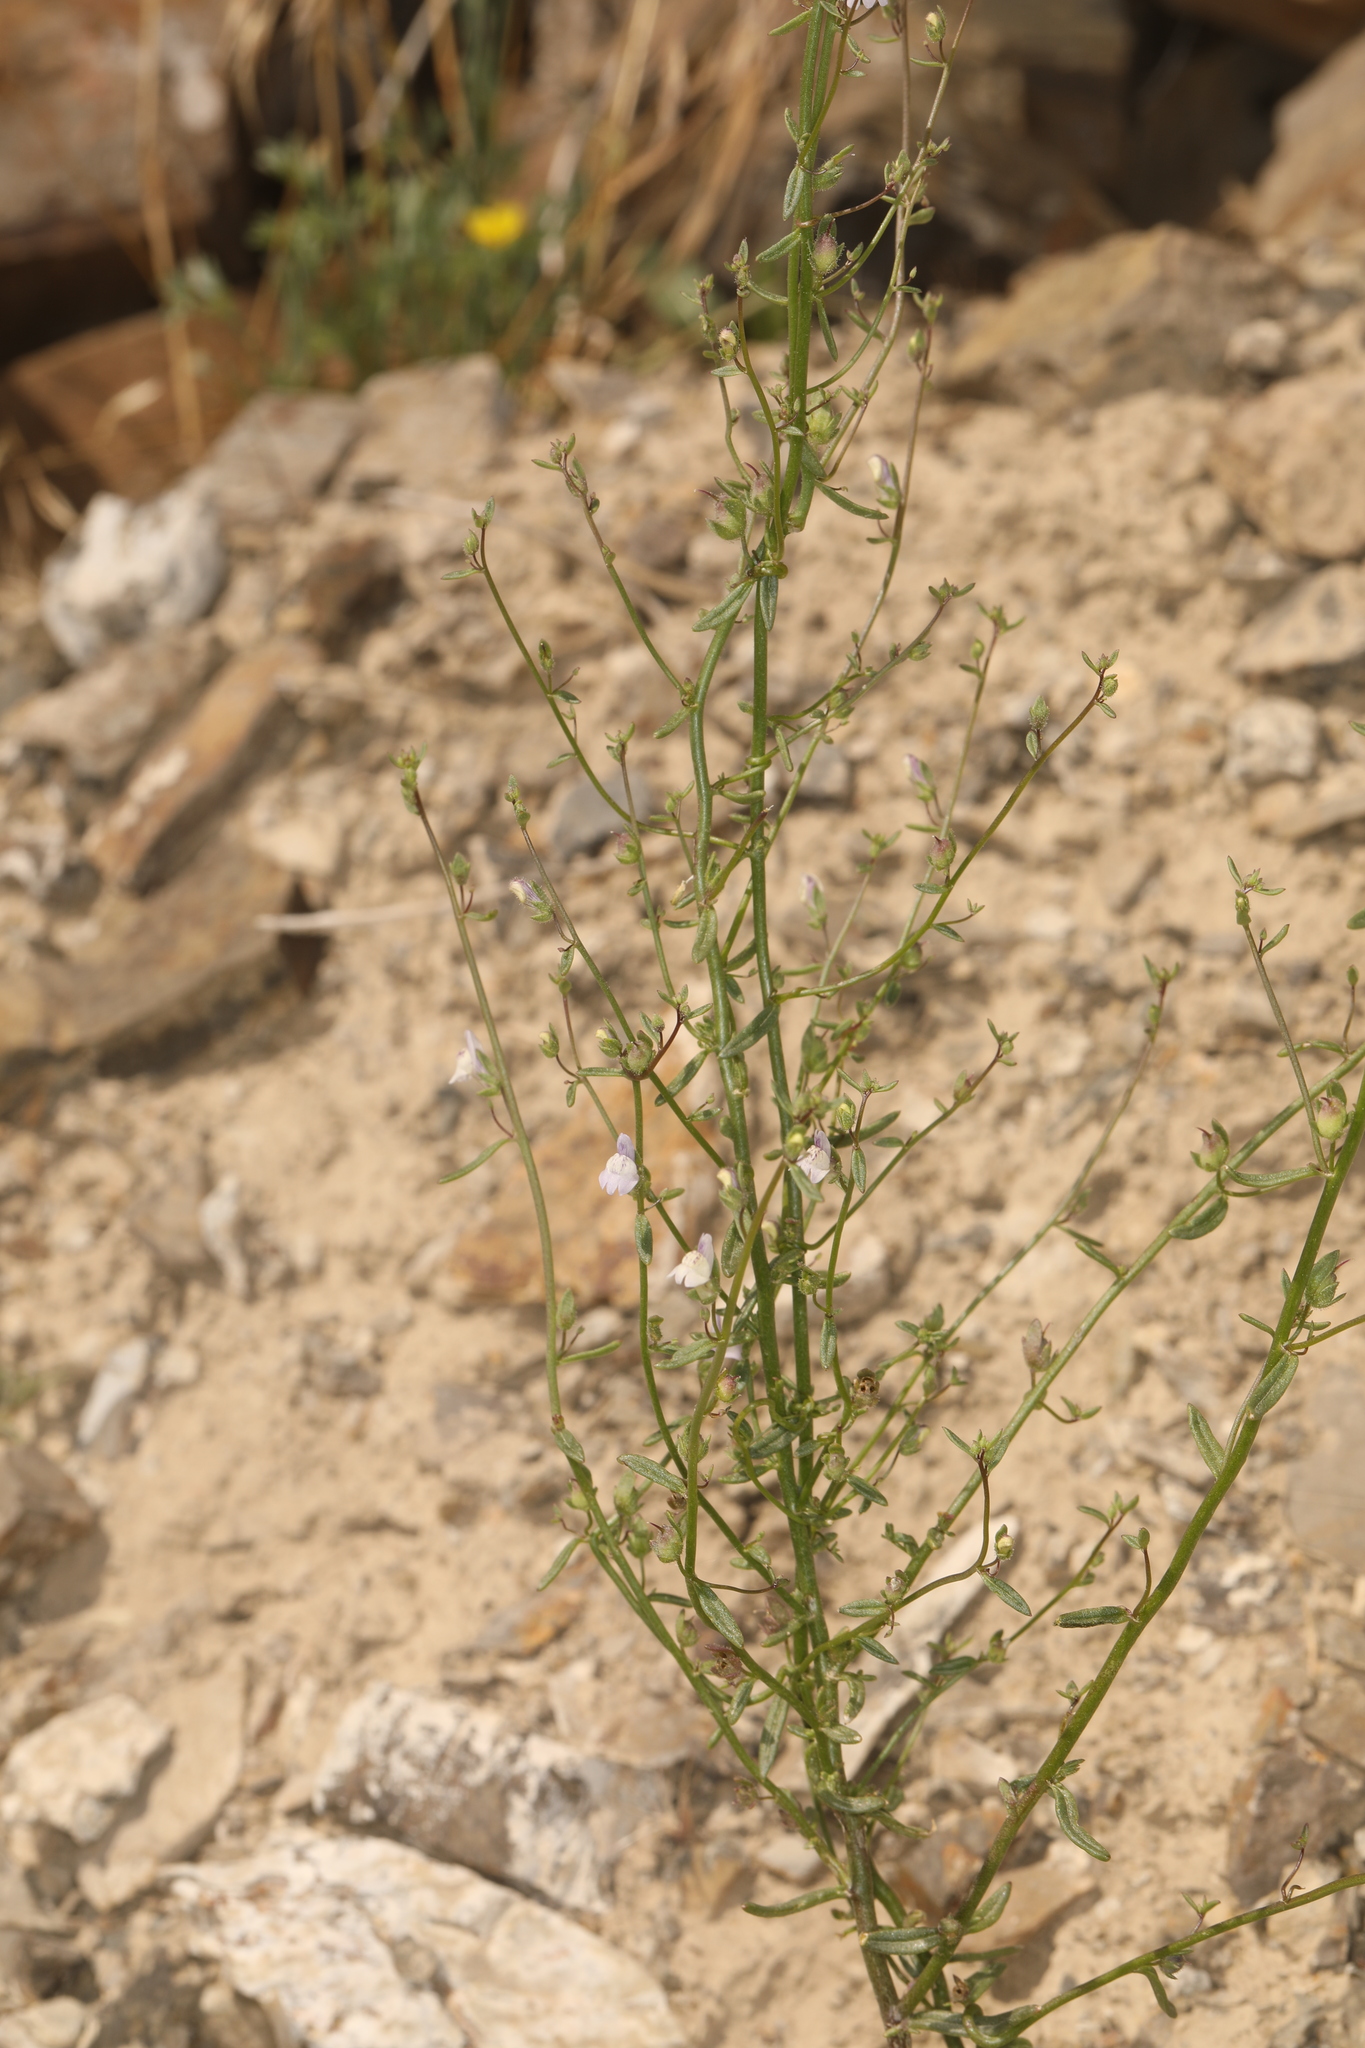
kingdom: Plantae
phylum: Tracheophyta
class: Magnoliopsida
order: Lamiales
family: Plantaginaceae
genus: Sairocarpus
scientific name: Sairocarpus kingii
